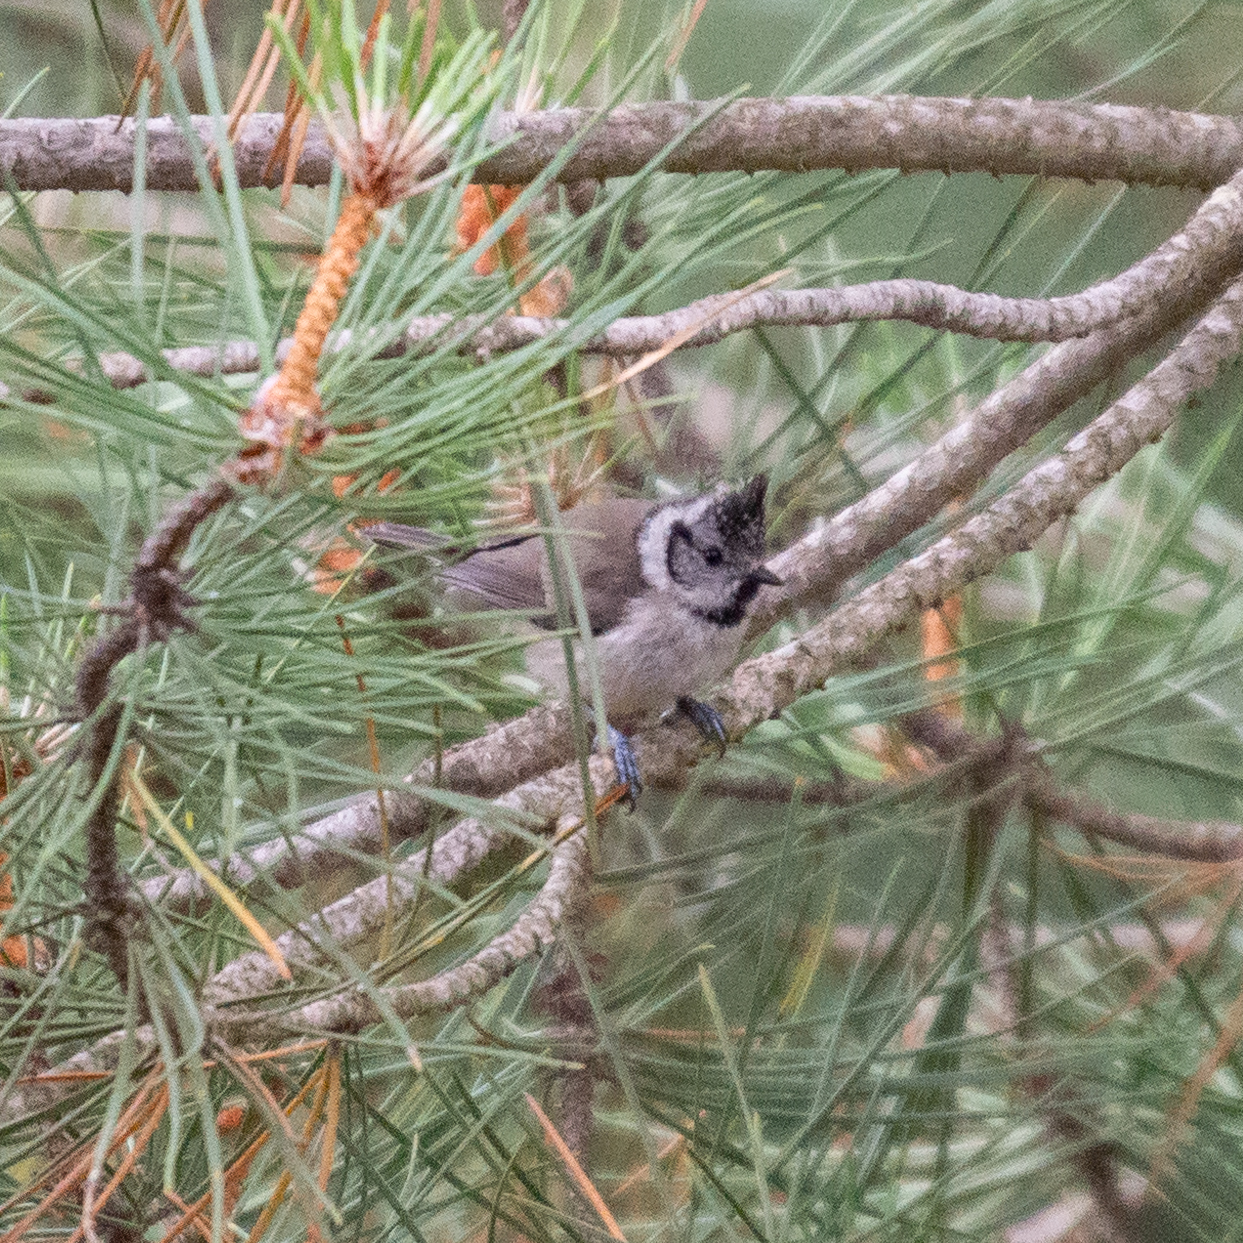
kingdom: Animalia
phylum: Chordata
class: Aves
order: Passeriformes
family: Paridae
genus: Lophophanes
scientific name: Lophophanes cristatus
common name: European crested tit
